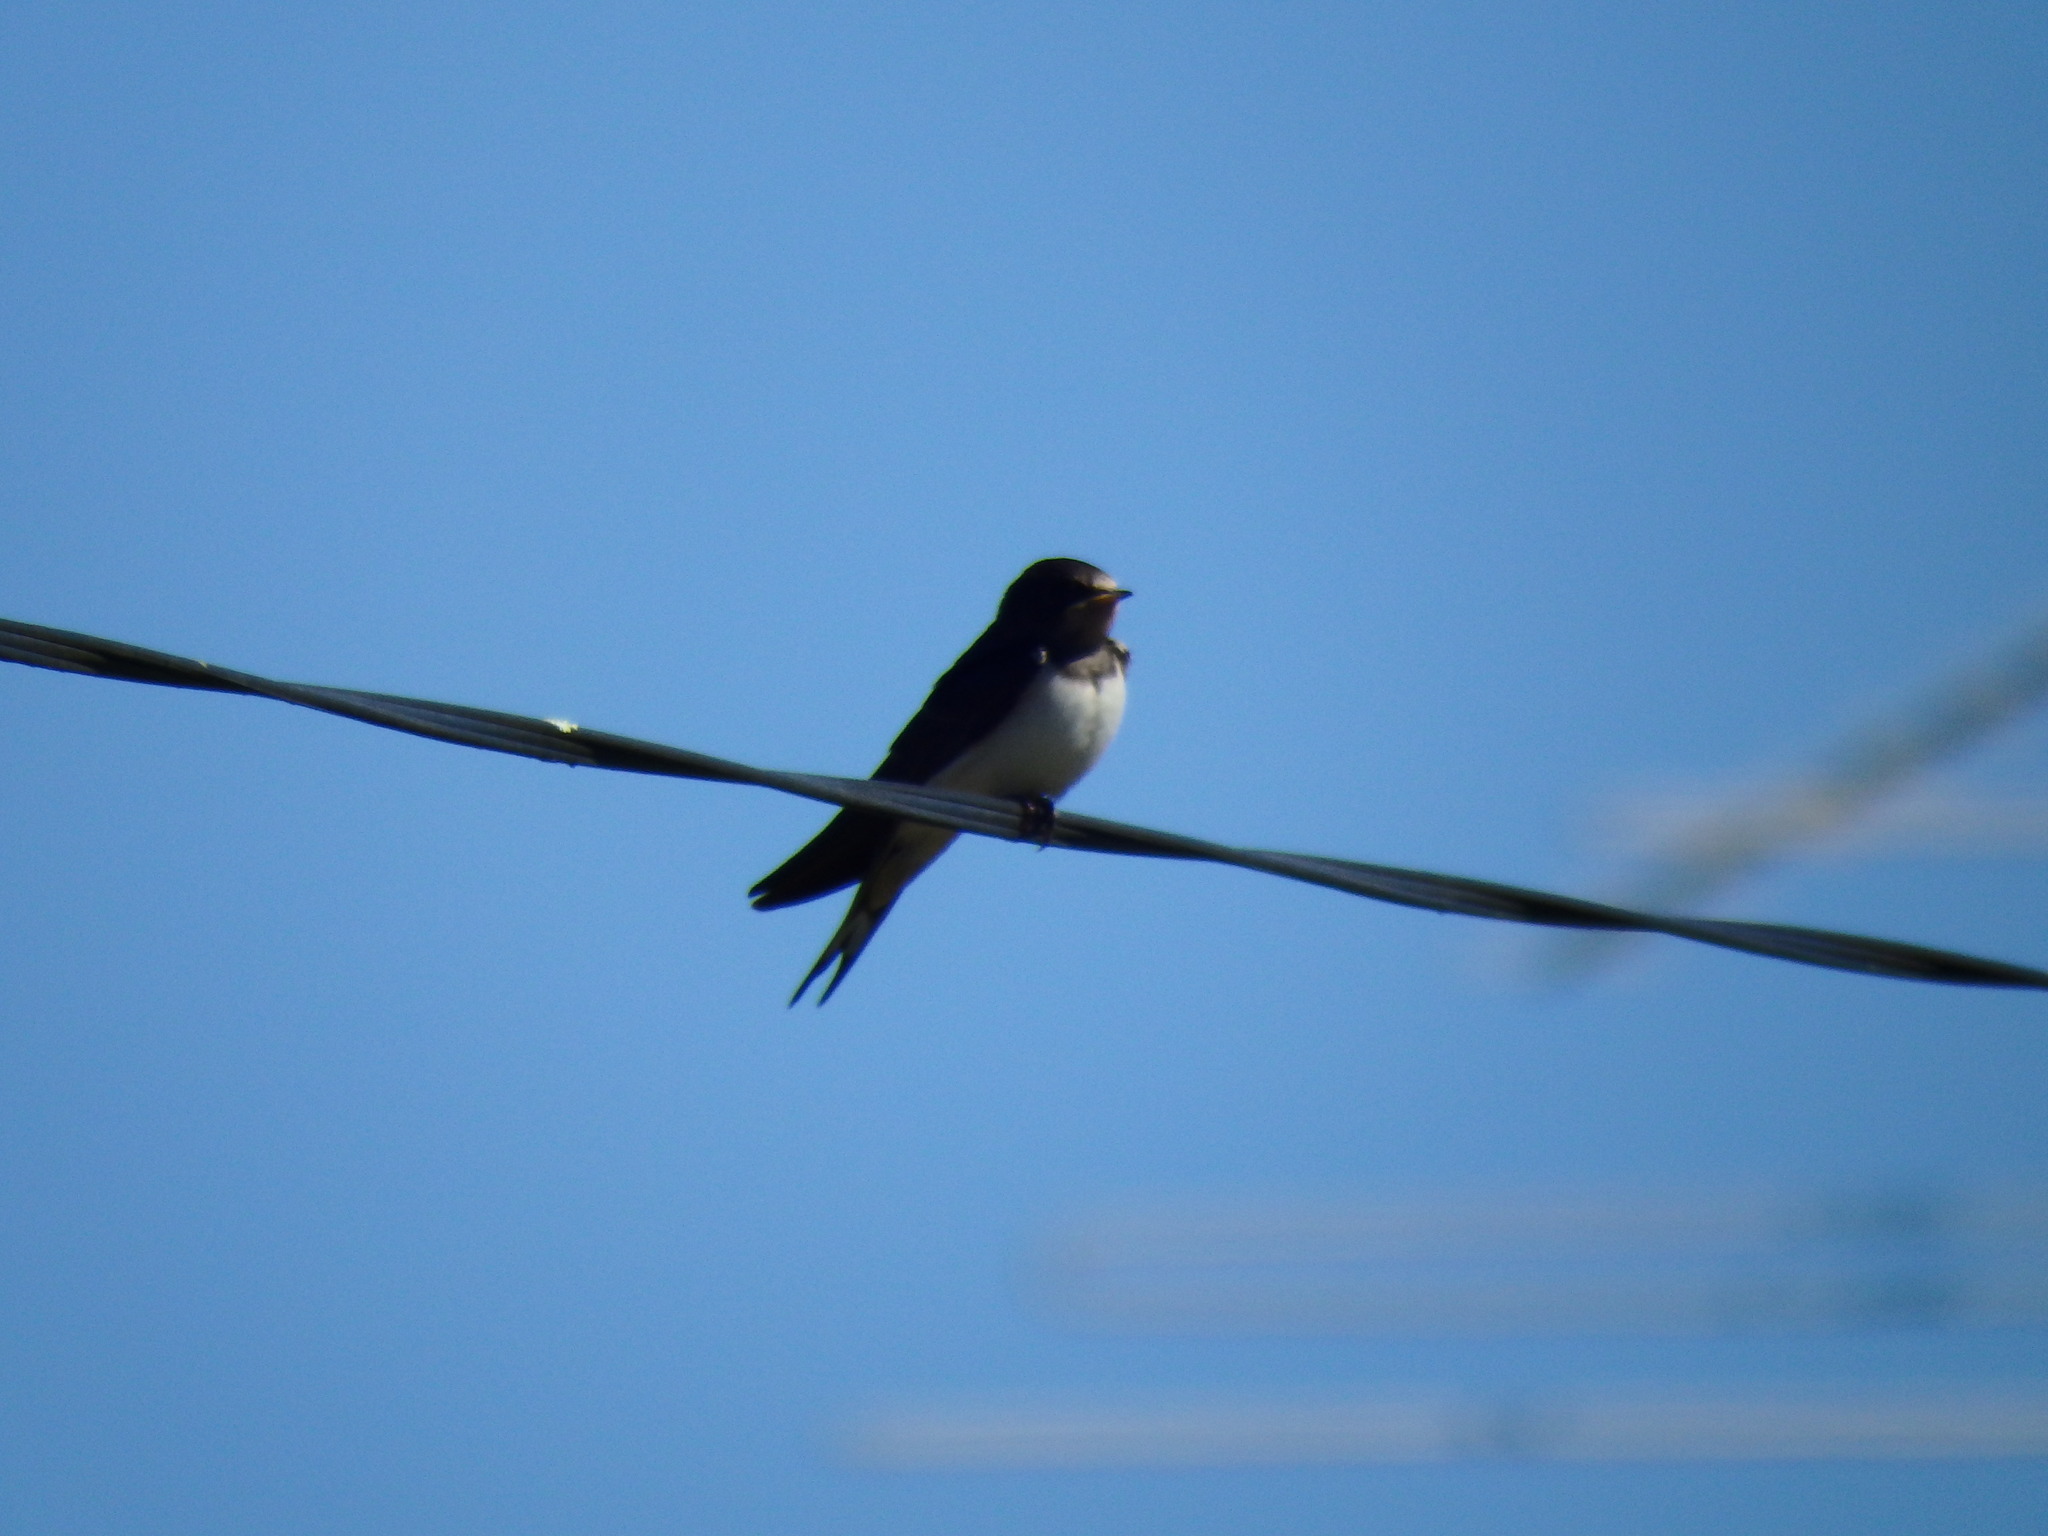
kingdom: Animalia
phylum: Chordata
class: Aves
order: Passeriformes
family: Hirundinidae
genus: Hirundo
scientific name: Hirundo rustica
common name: Barn swallow
